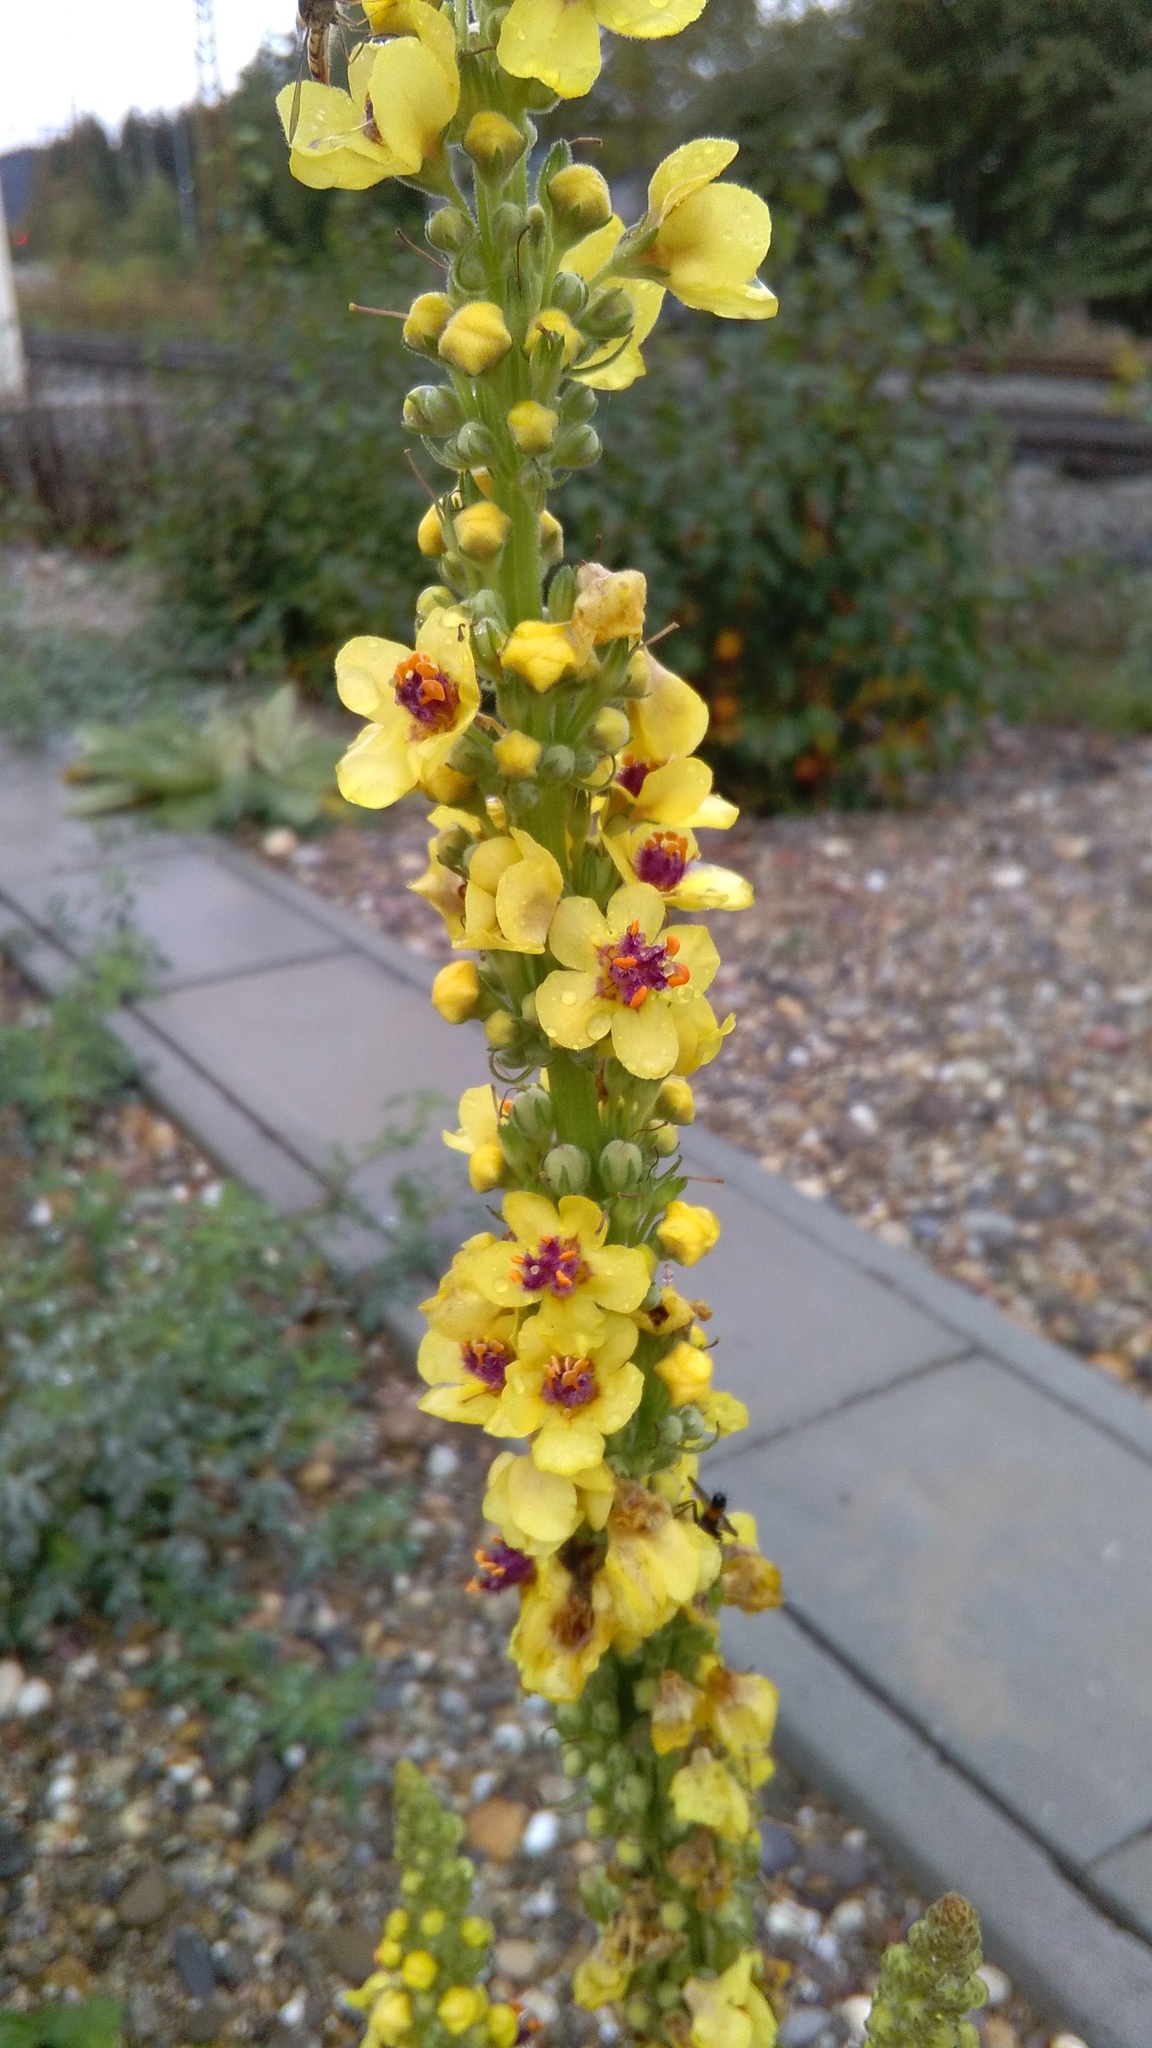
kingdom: Plantae
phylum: Tracheophyta
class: Magnoliopsida
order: Lamiales
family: Scrophulariaceae
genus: Verbascum
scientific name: Verbascum nigrum
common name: Dark mullein
